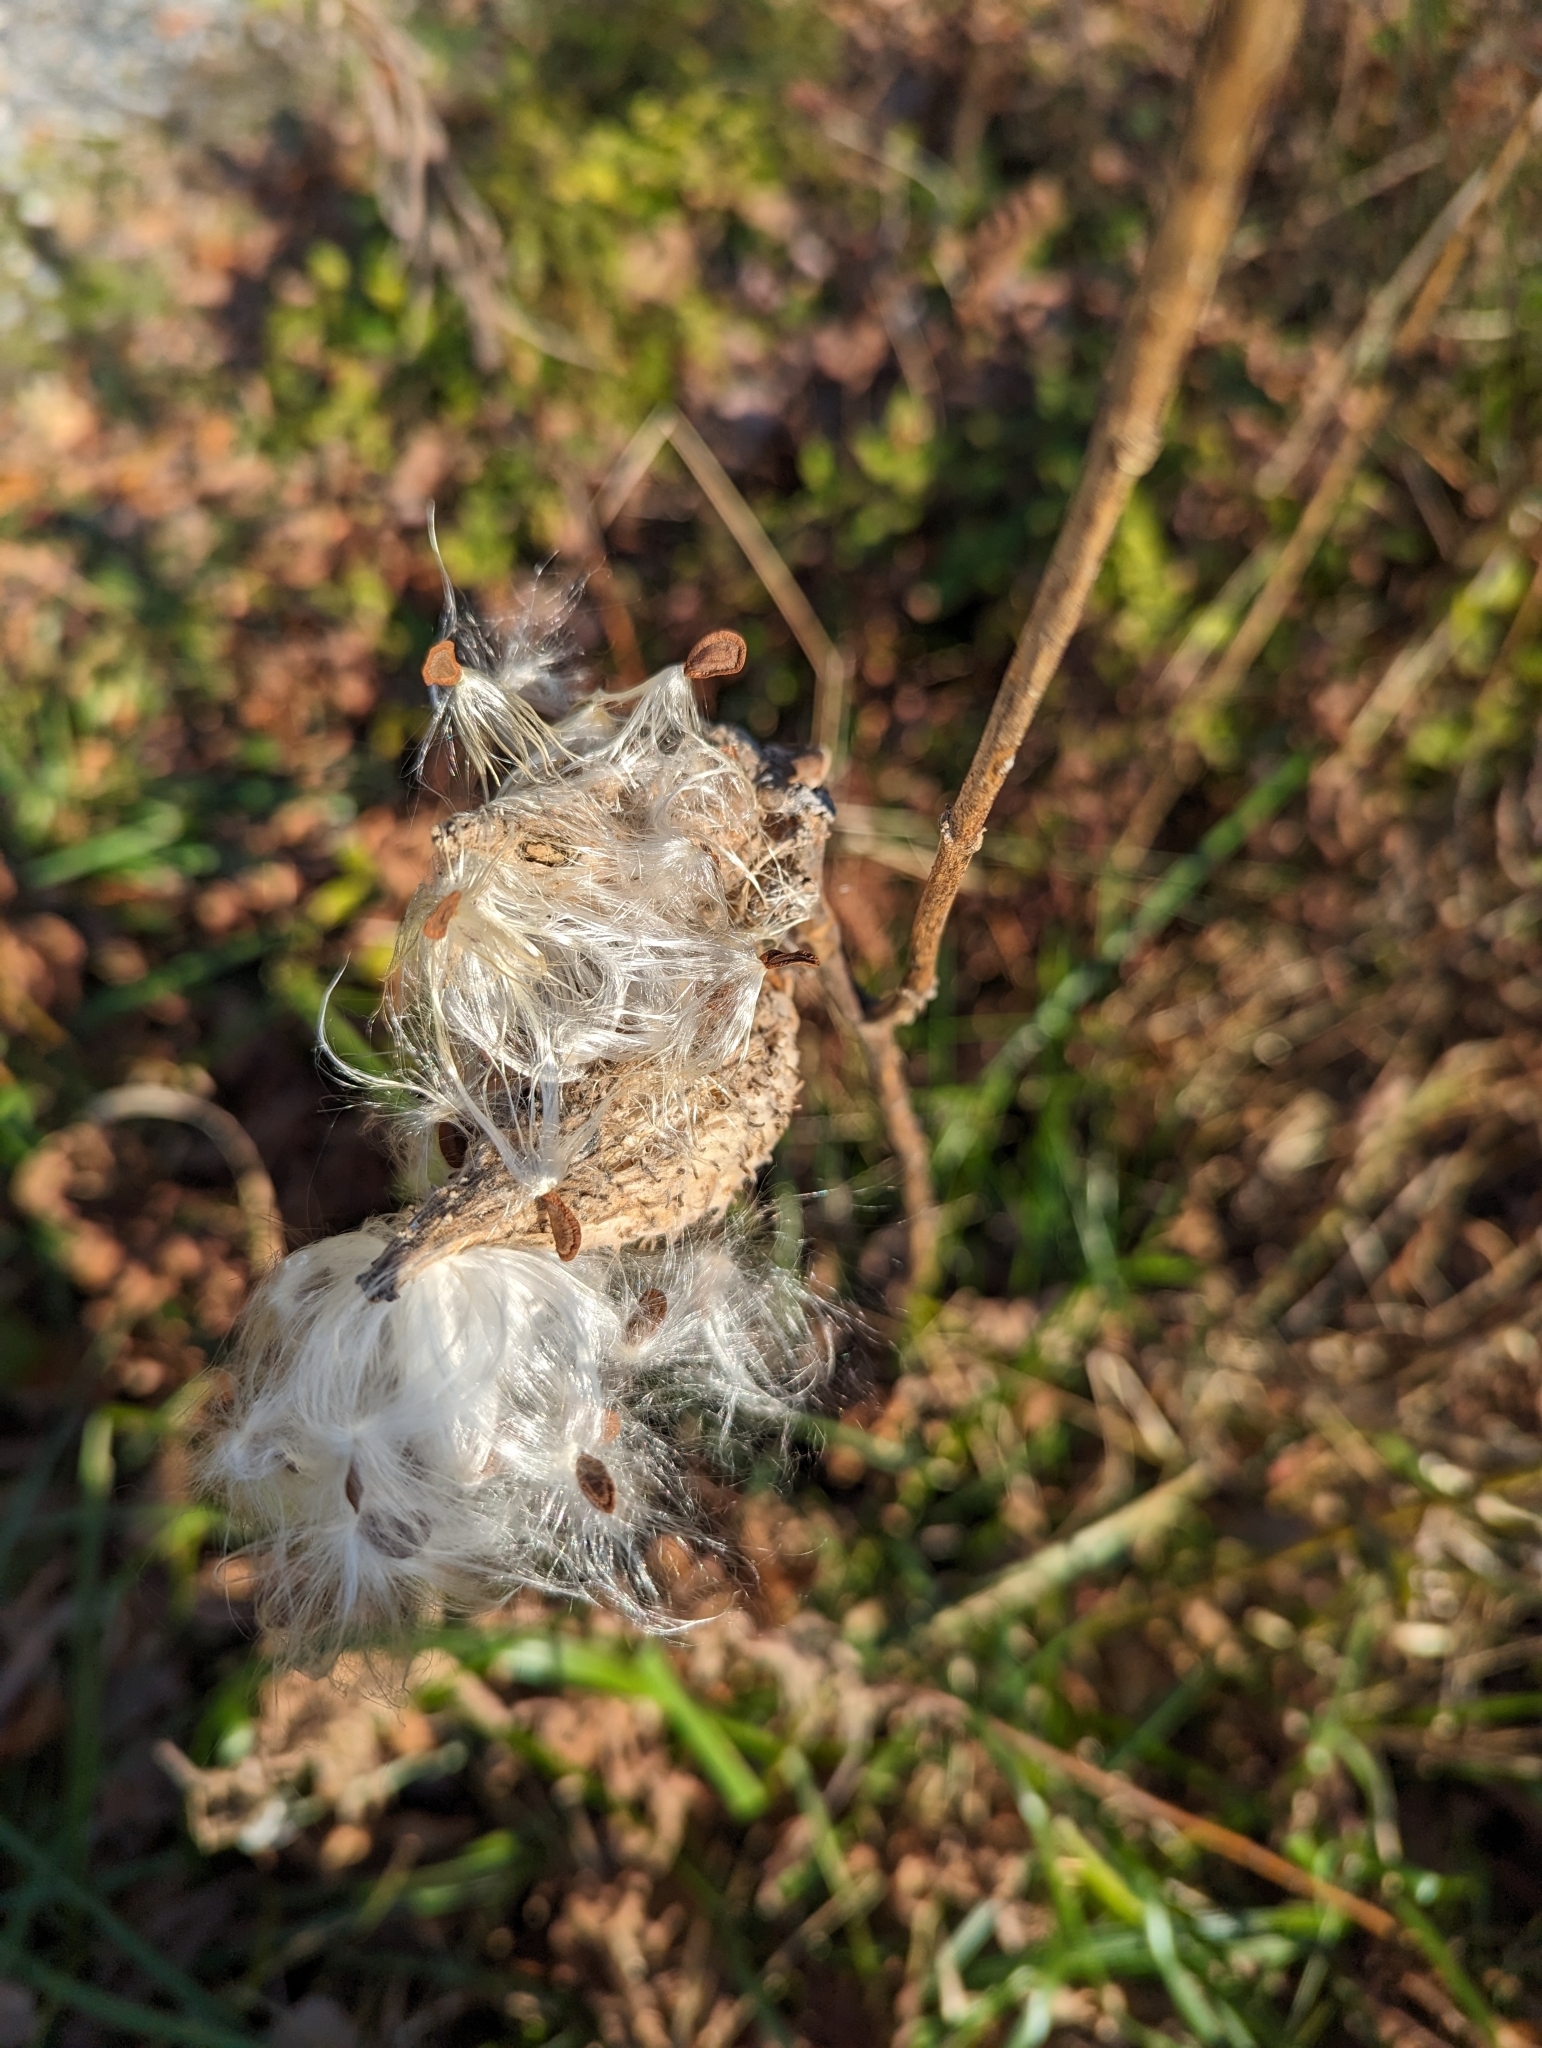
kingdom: Plantae
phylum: Tracheophyta
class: Magnoliopsida
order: Gentianales
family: Apocynaceae
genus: Asclepias
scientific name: Asclepias syriaca
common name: Common milkweed
